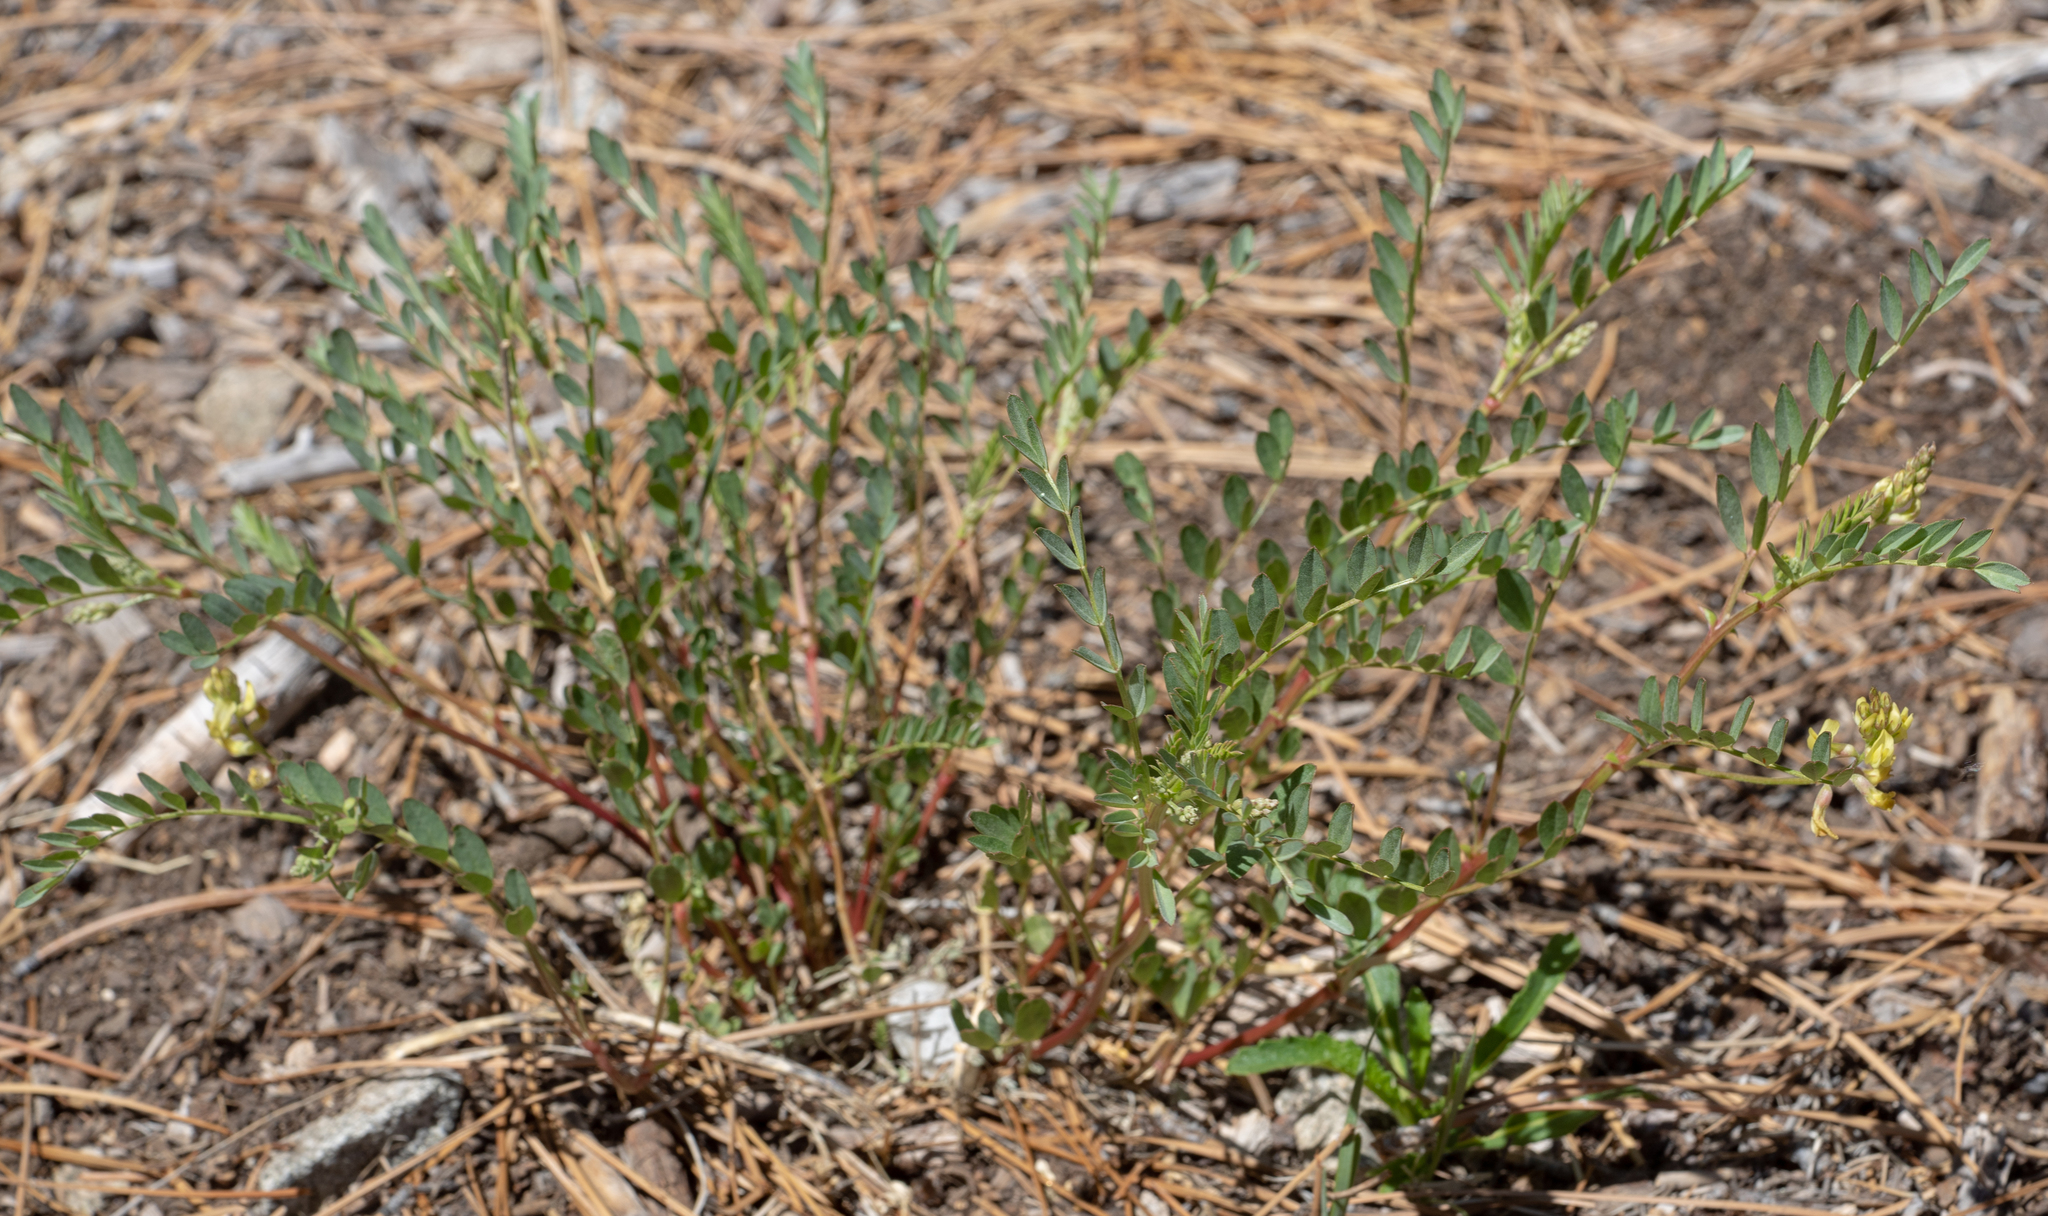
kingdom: Plantae
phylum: Tracheophyta
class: Magnoliopsida
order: Fabales
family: Fabaceae
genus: Astragalus
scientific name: Astragalus douglasii
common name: Jacumba milkvetch
